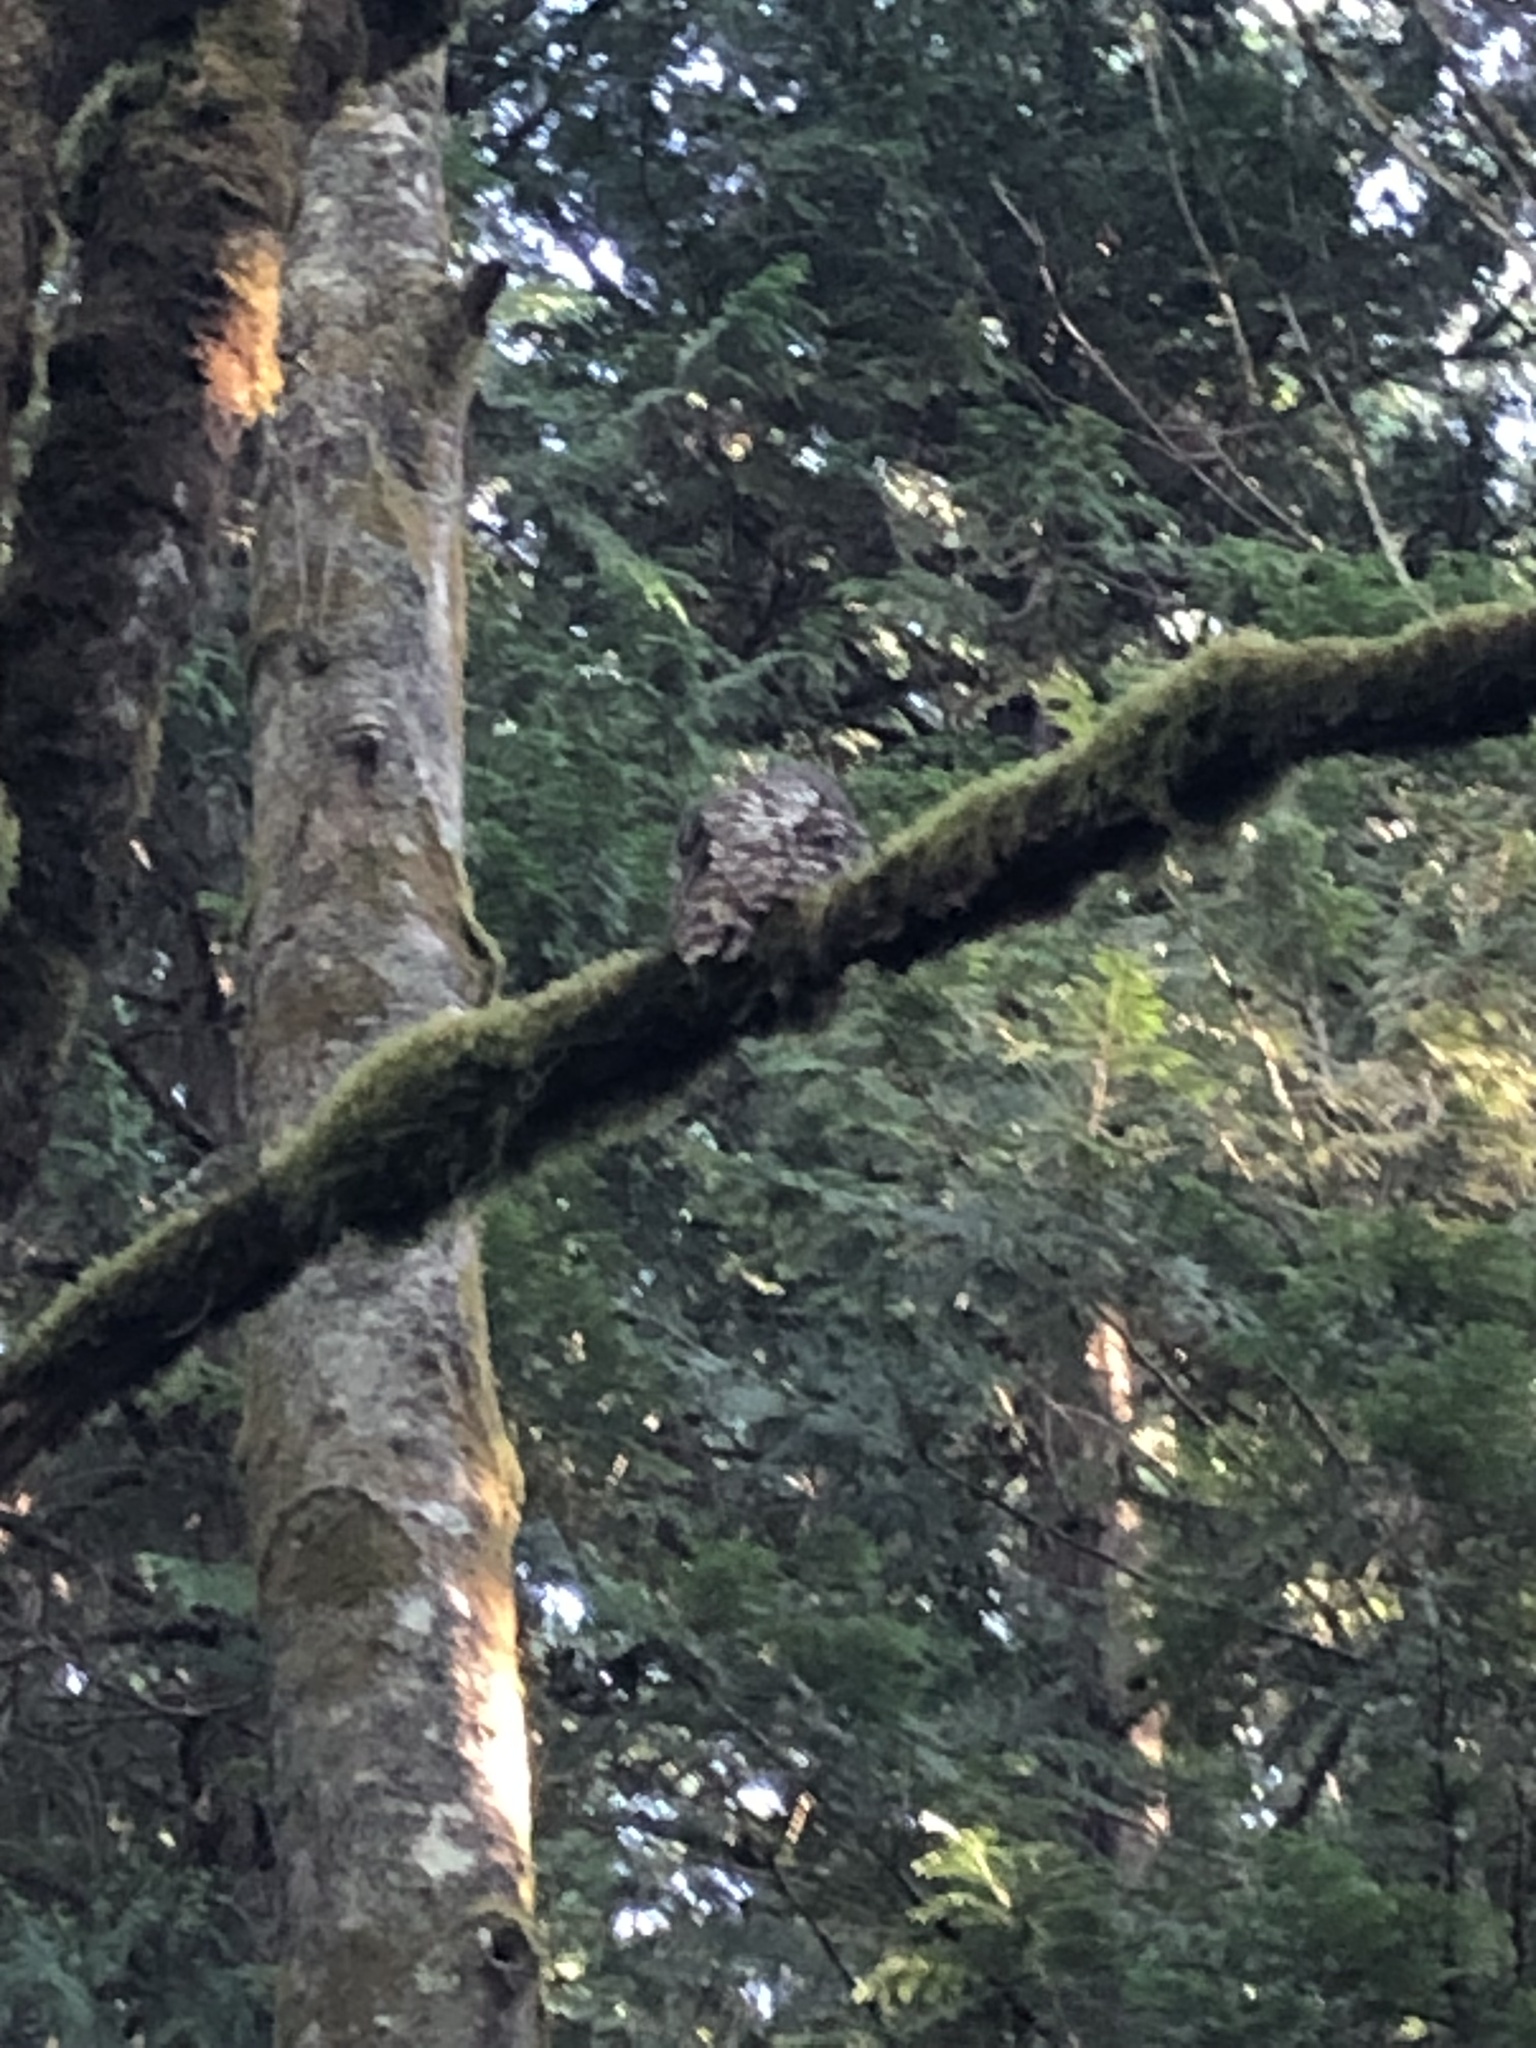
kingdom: Animalia
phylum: Chordata
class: Aves
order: Strigiformes
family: Strigidae
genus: Strix
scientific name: Strix varia
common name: Barred owl
